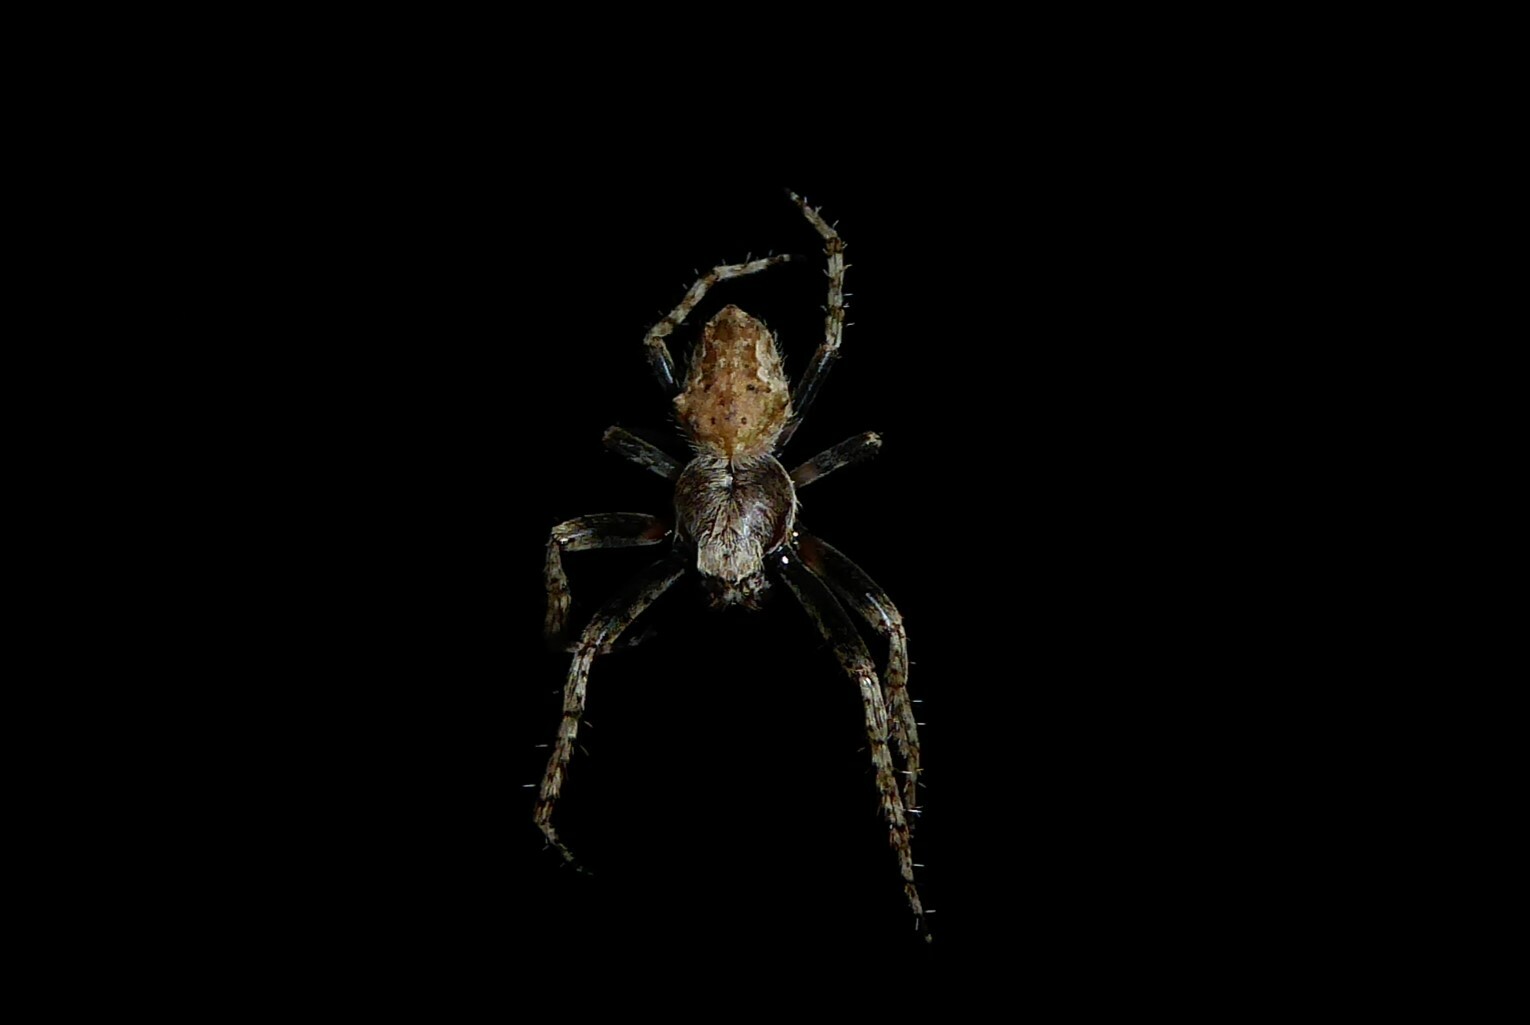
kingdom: Animalia
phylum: Arthropoda
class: Arachnida
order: Araneae
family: Araneidae
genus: Eriophora
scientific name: Eriophora pustulosa
